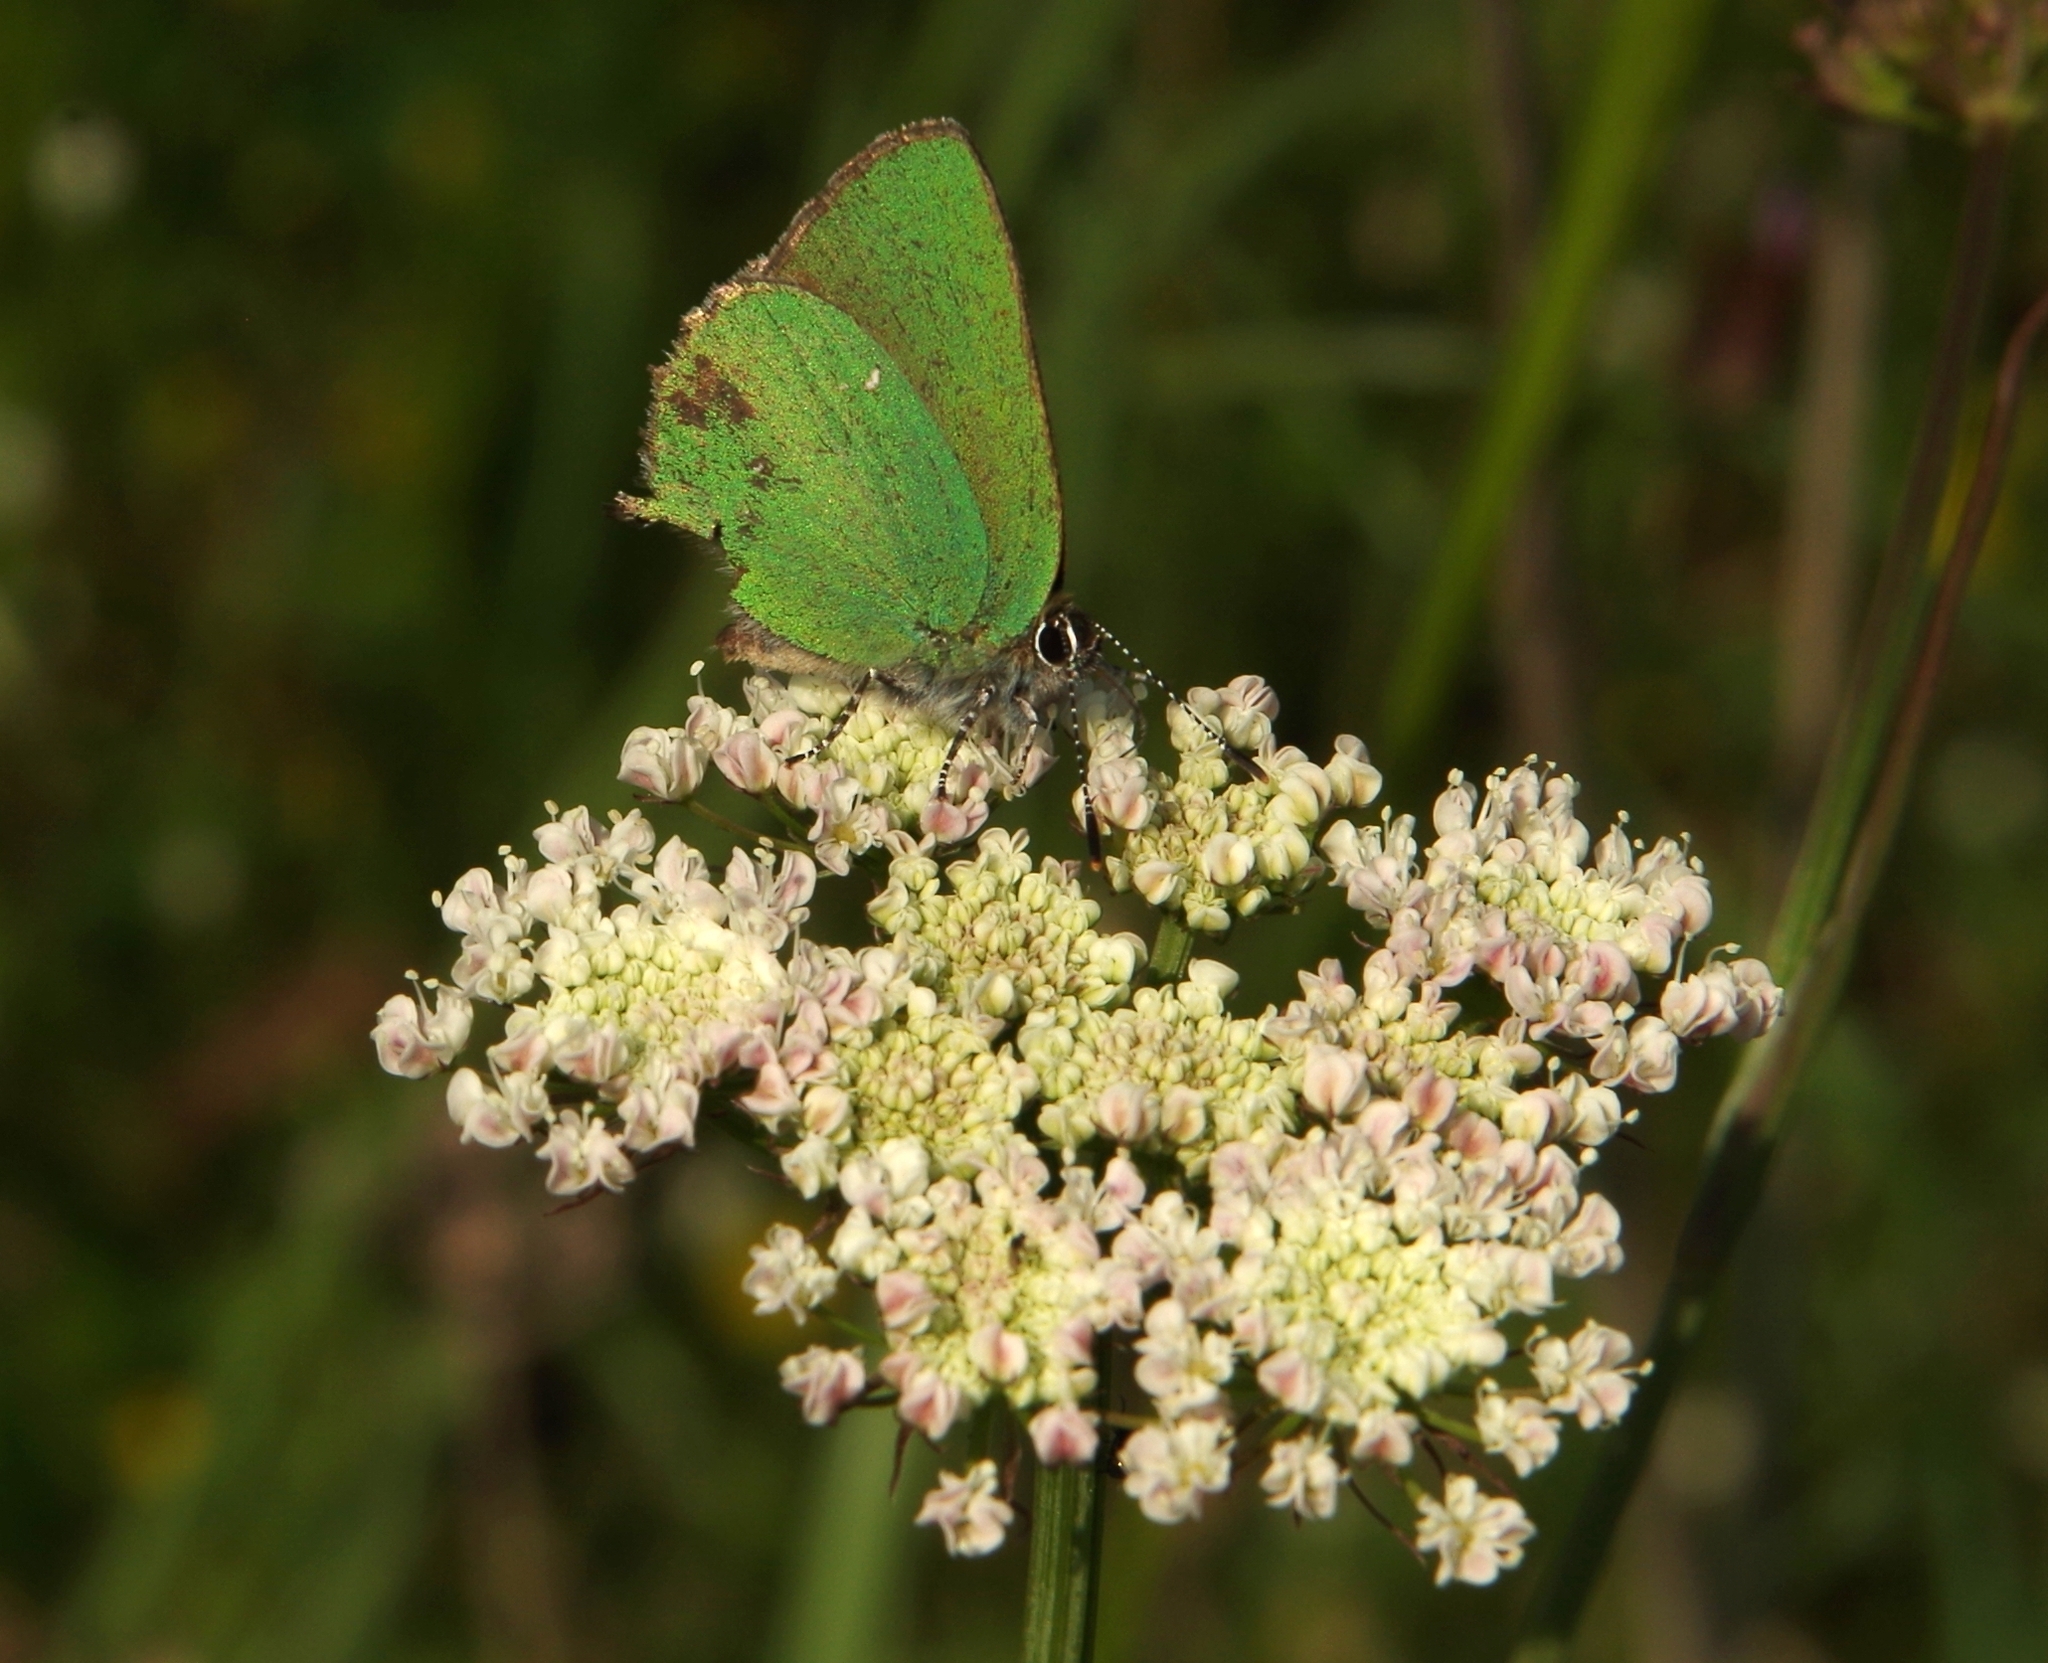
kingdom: Animalia
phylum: Arthropoda
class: Insecta
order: Lepidoptera
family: Lycaenidae
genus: Callophrys
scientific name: Callophrys rubi
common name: Green hairstreak
